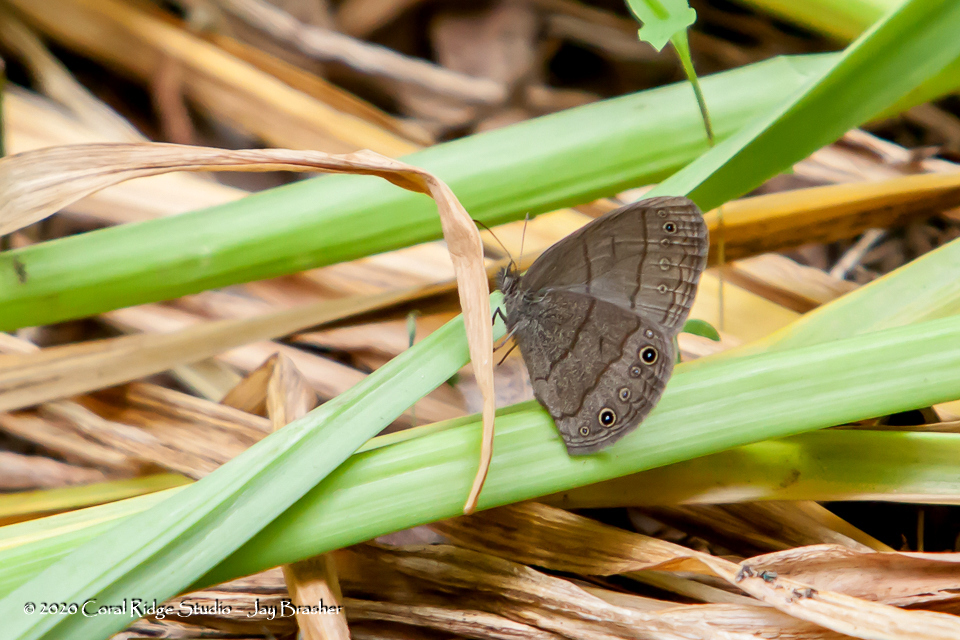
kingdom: Animalia
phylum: Arthropoda
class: Insecta
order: Lepidoptera
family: Nymphalidae
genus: Hermeuptychia
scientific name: Hermeuptychia hermes
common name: Hermes satyr
